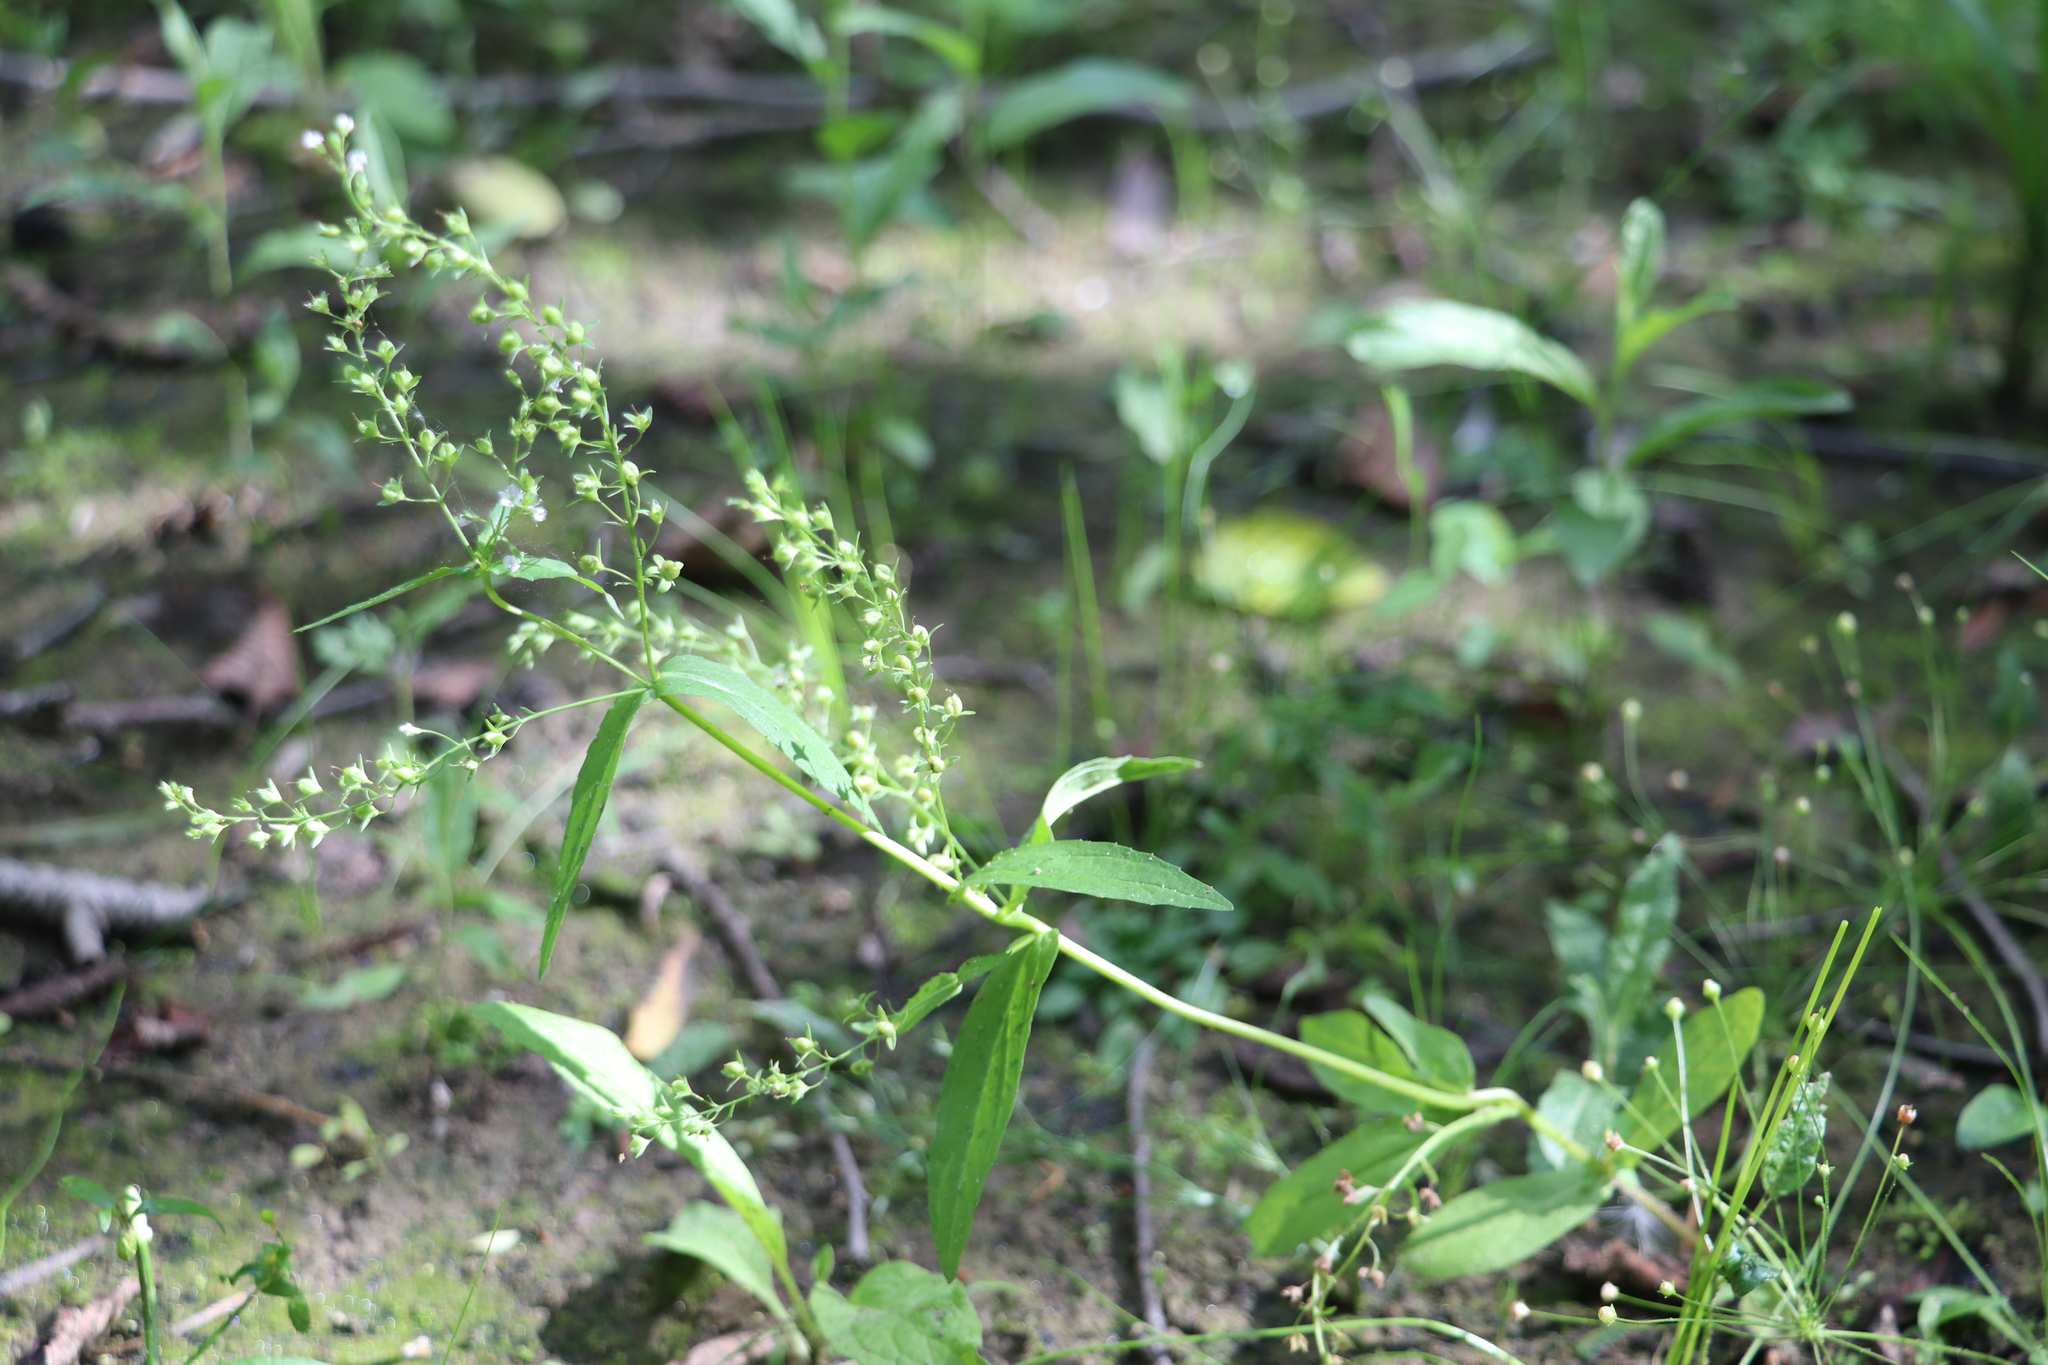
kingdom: Plantae
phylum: Tracheophyta
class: Magnoliopsida
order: Lamiales
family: Plantaginaceae
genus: Veronica
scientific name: Veronica anagallis-aquatica
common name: Water speedwell
